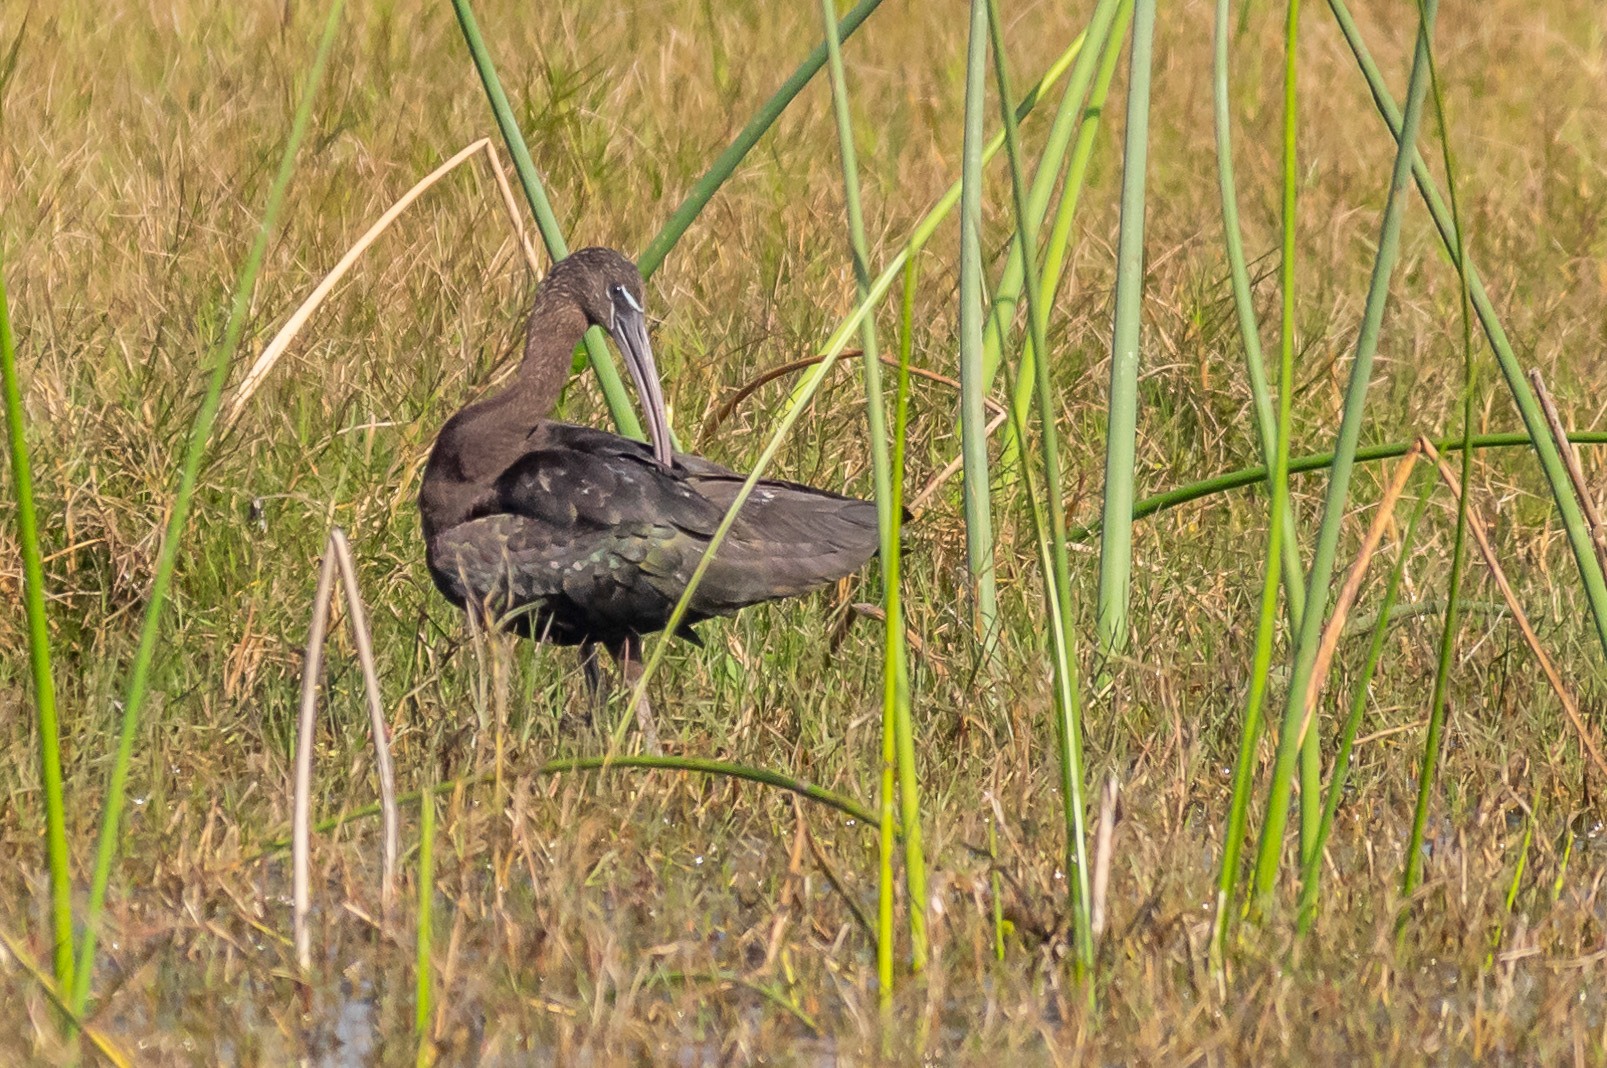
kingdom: Animalia
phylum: Chordata
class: Aves
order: Pelecaniformes
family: Threskiornithidae
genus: Plegadis
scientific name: Plegadis falcinellus
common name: Glossy ibis
